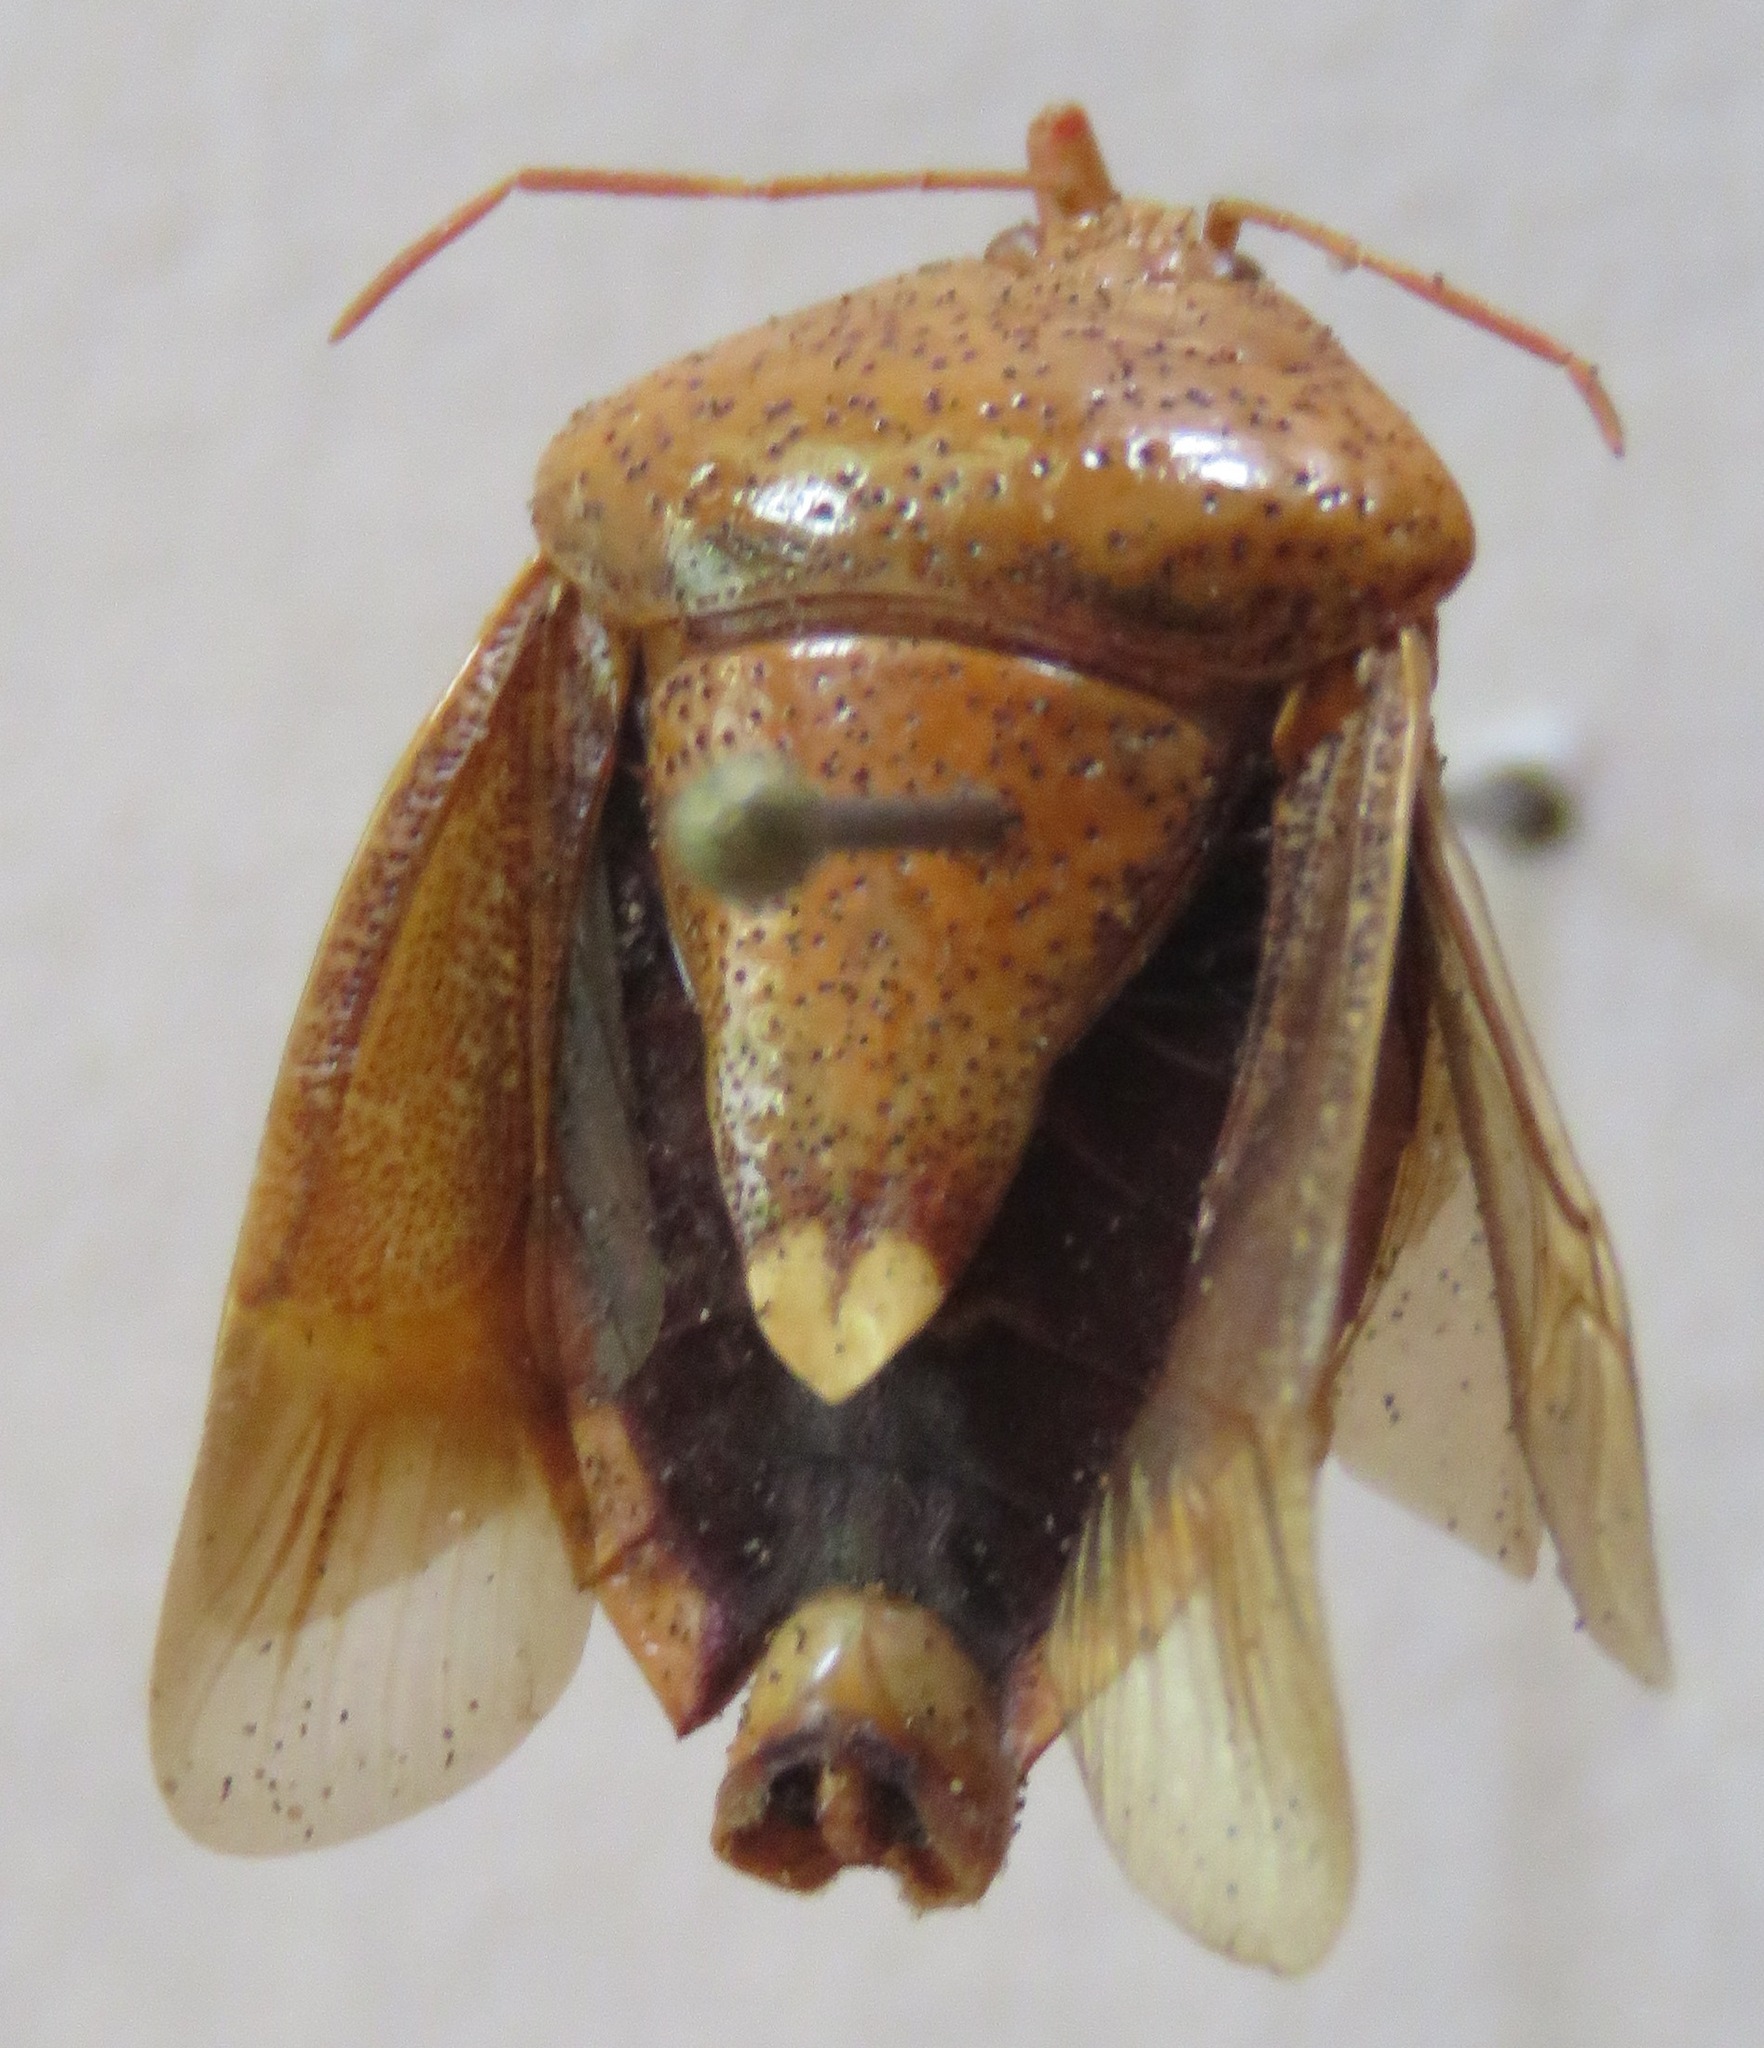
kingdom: Animalia
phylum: Arthropoda
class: Insecta
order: Hemiptera
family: Pentatomidae
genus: Edessa
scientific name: Edessa bifida
